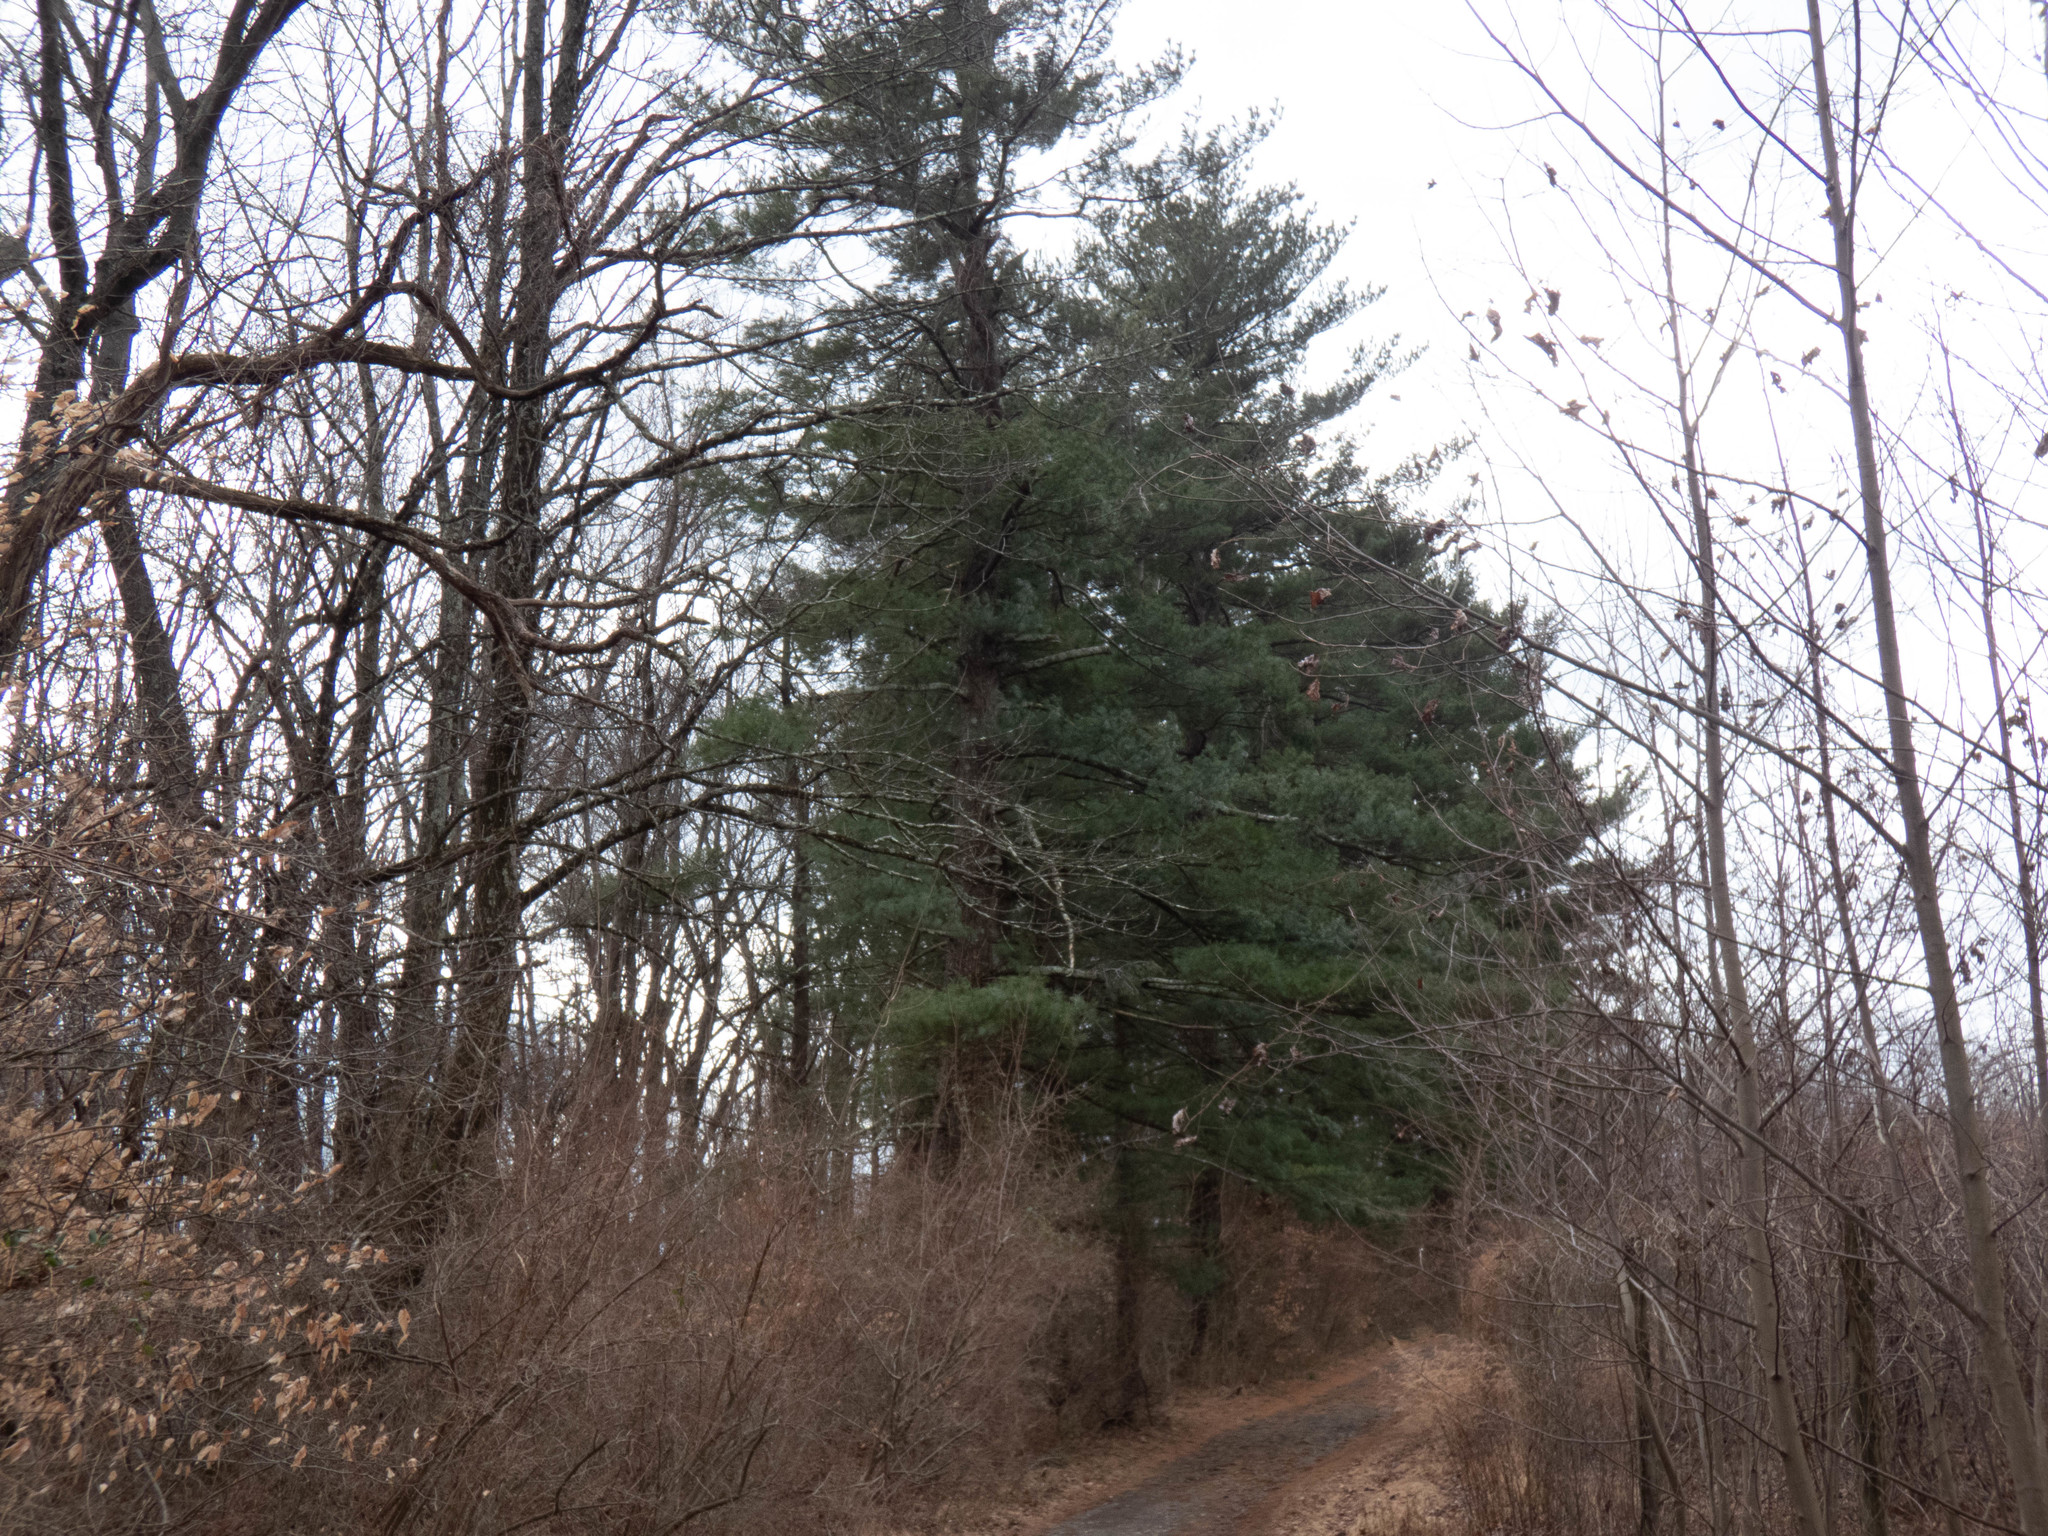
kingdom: Plantae
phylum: Tracheophyta
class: Pinopsida
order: Pinales
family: Pinaceae
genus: Pinus
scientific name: Pinus strobus
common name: Weymouth pine
